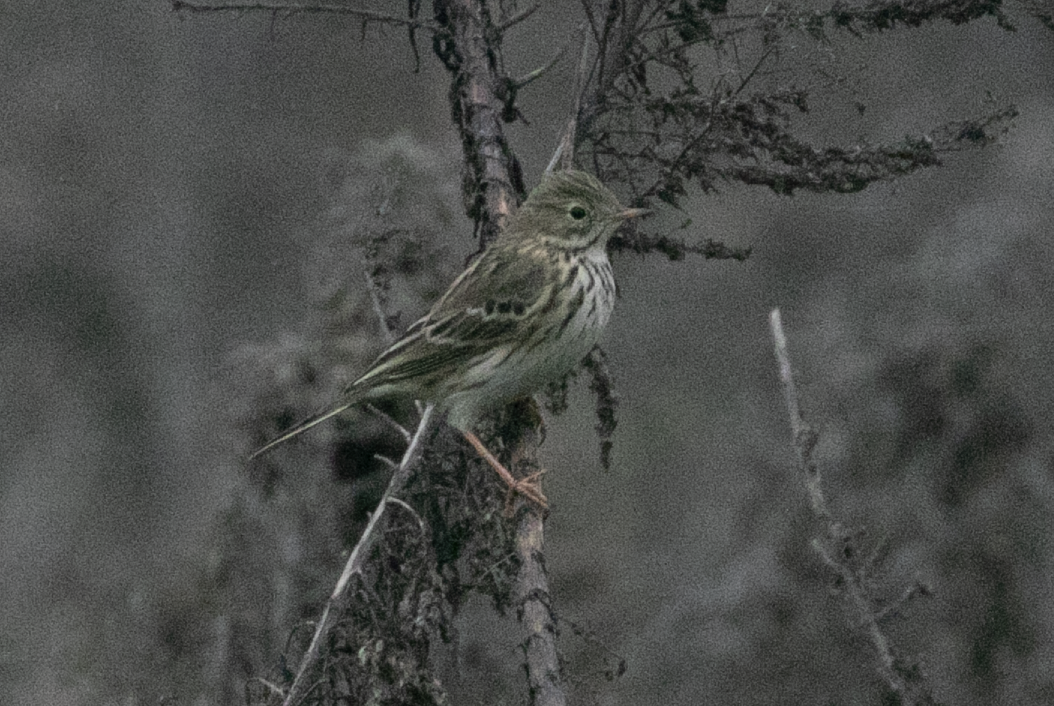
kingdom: Animalia
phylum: Chordata
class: Aves
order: Passeriformes
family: Motacillidae
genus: Anthus
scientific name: Anthus pratensis
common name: Meadow pipit
